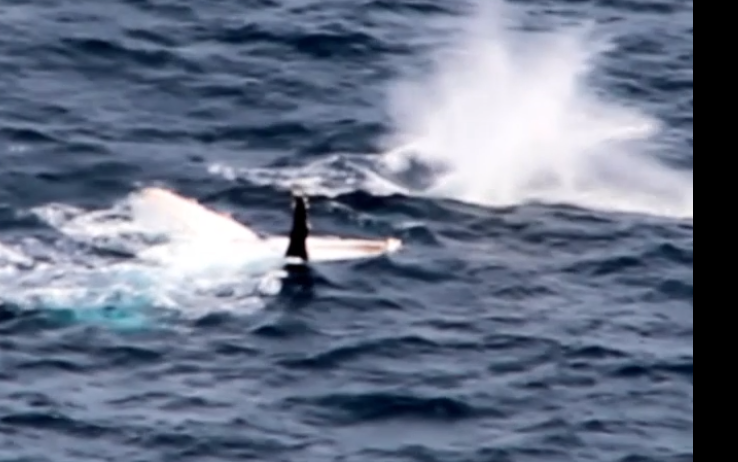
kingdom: Animalia
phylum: Chordata
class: Mammalia
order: Cetacea
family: Balaenopteridae
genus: Megaptera
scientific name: Megaptera novaeangliae
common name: Humpback whale
